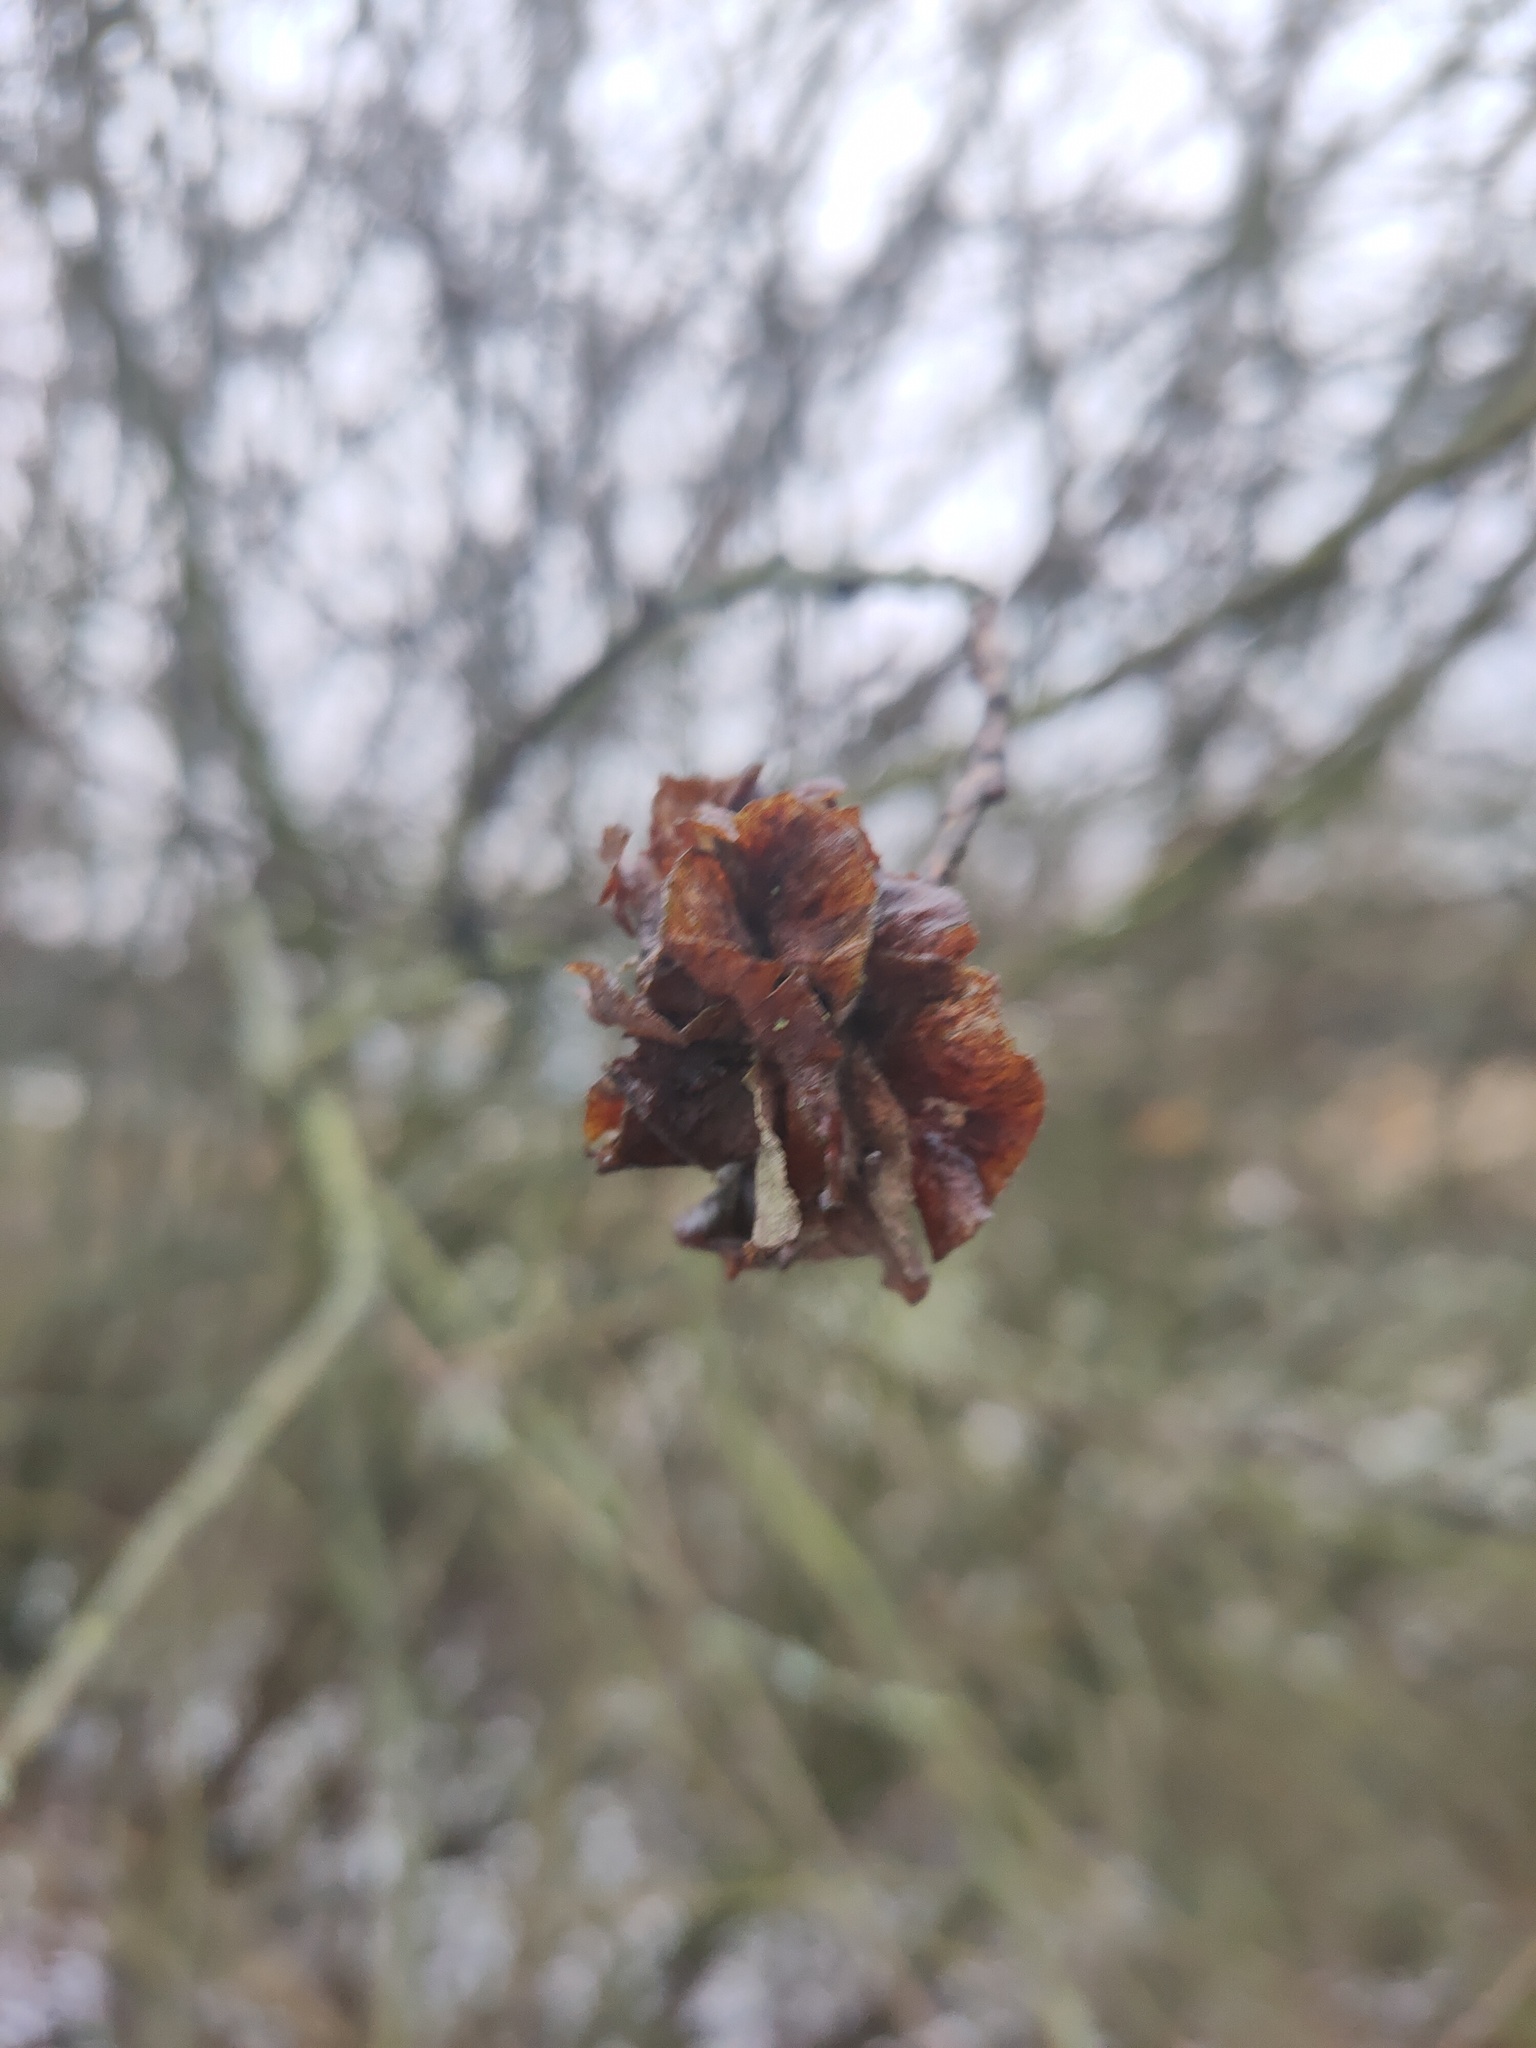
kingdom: Animalia
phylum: Arthropoda
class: Insecta
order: Diptera
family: Cecidomyiidae
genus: Rabdophaga
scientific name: Rabdophaga rosaria
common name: Willow rose gall midge
